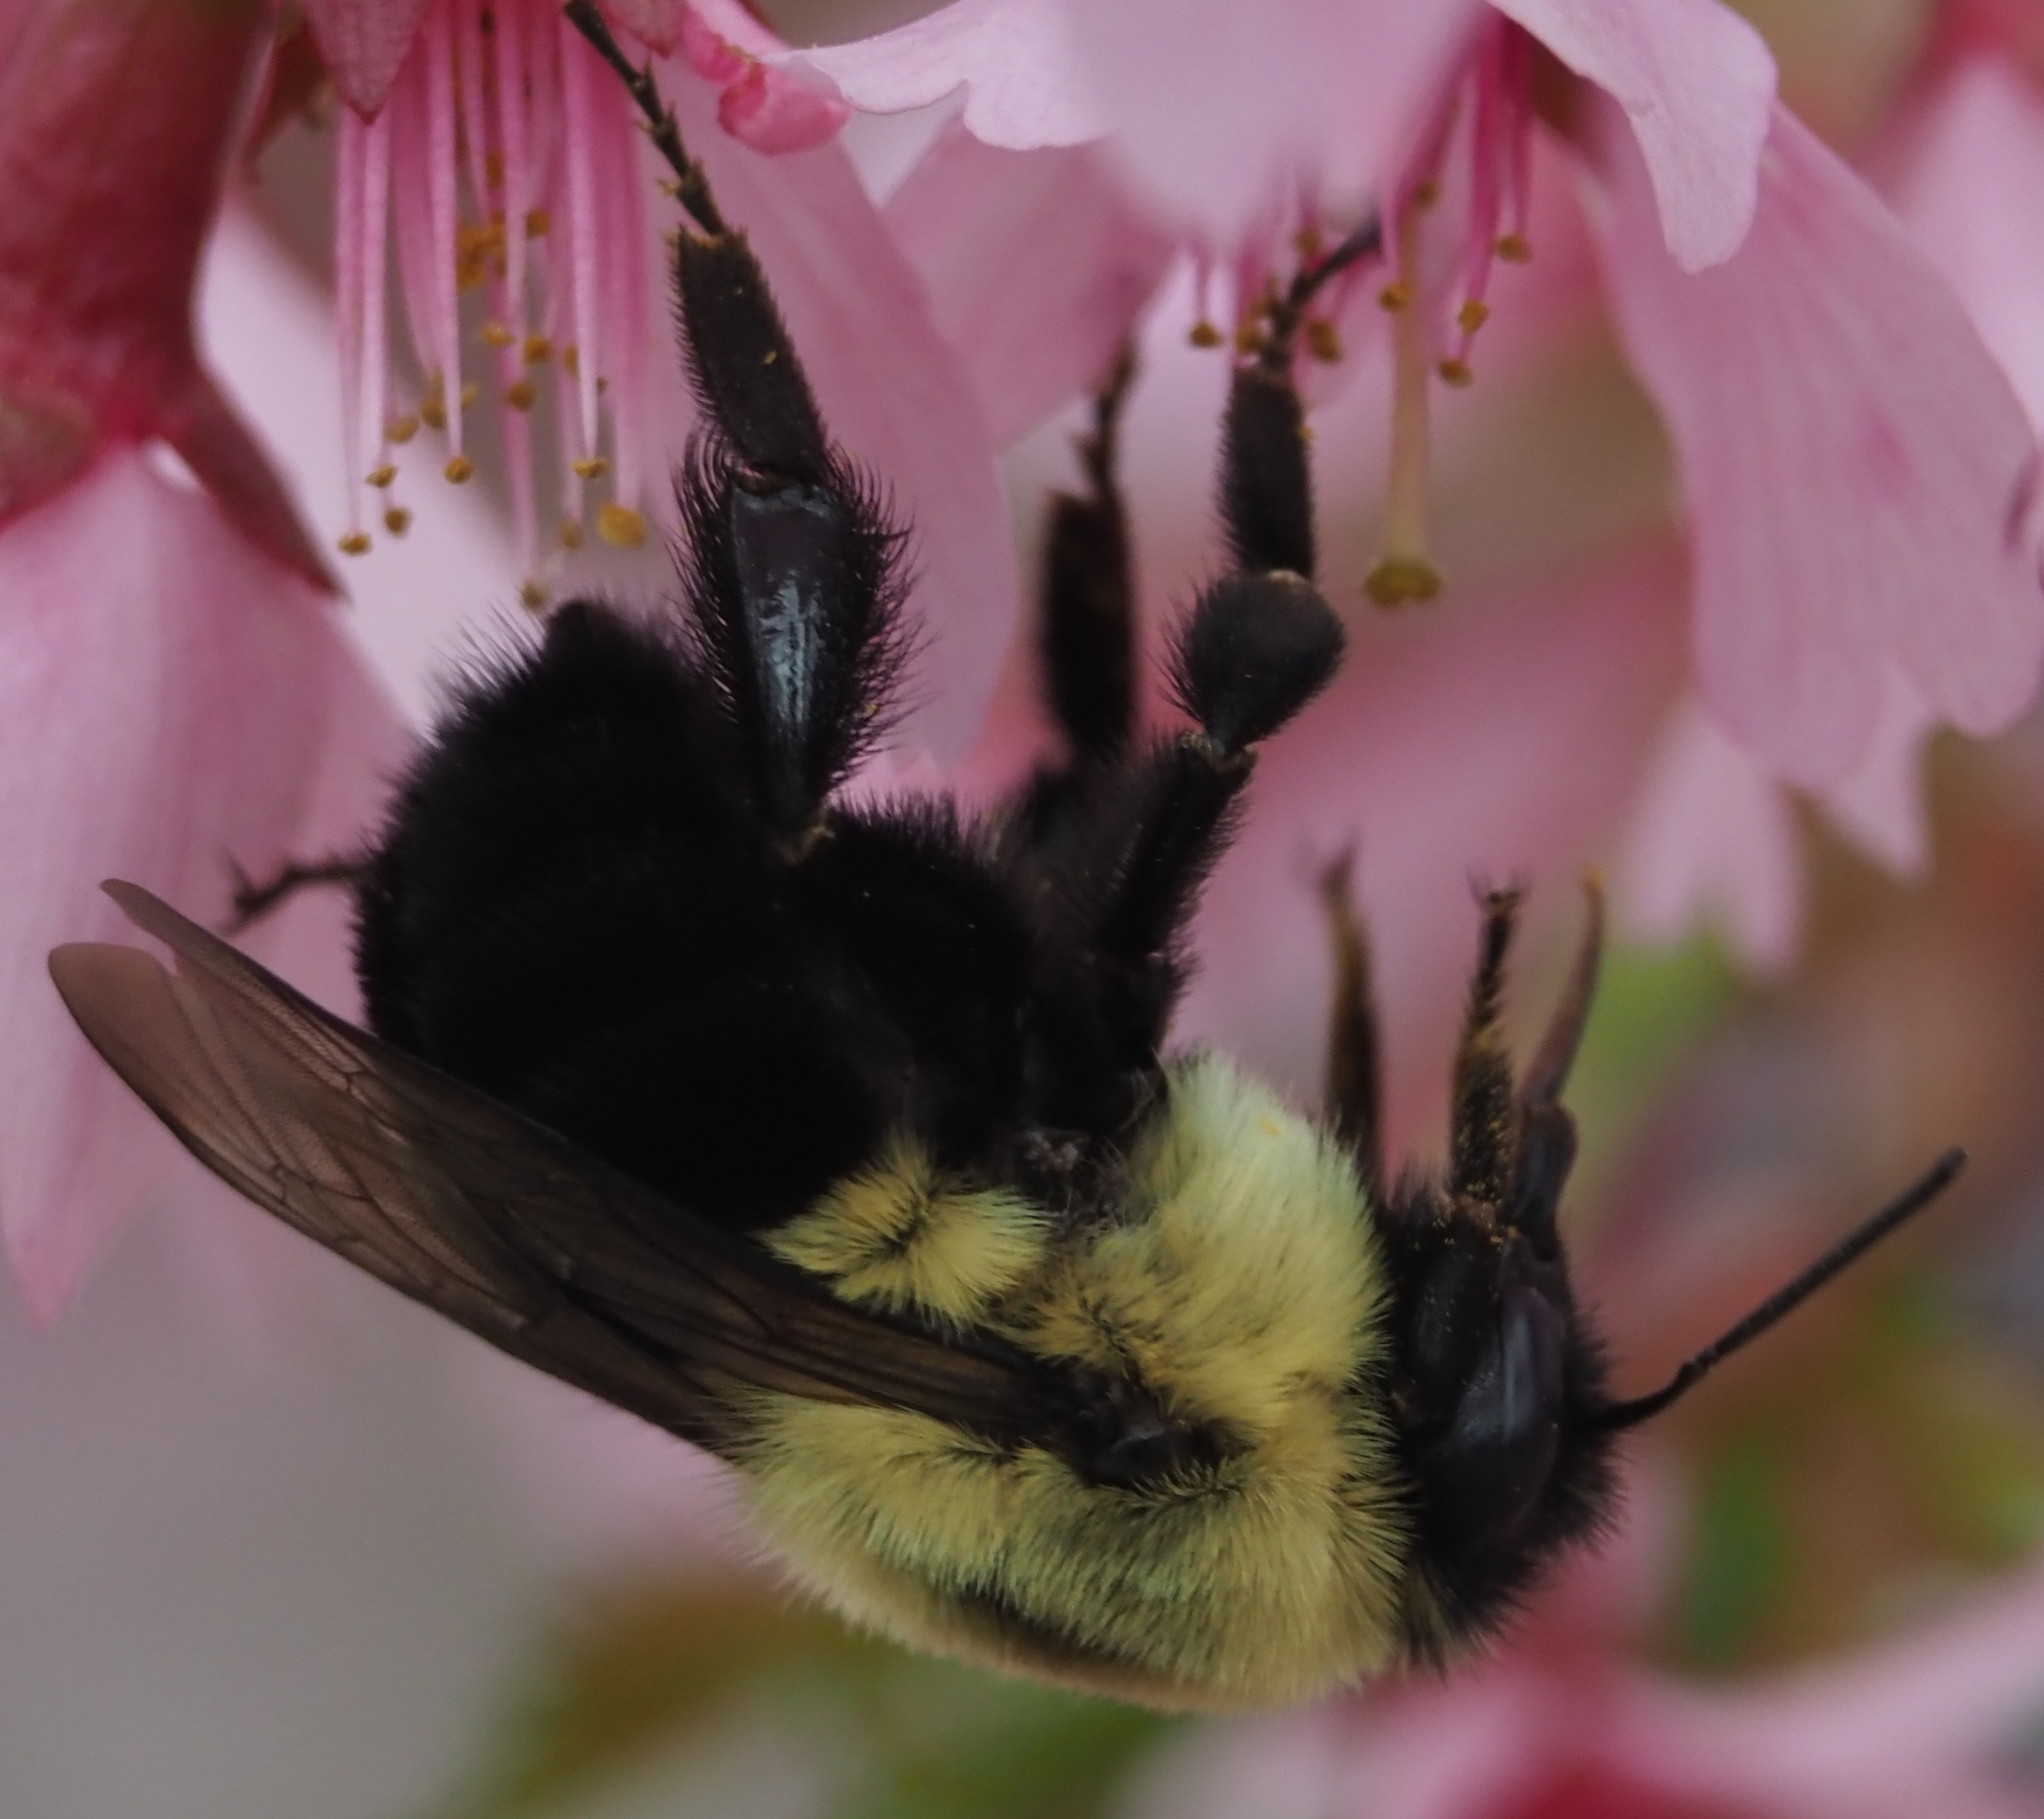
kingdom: Animalia
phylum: Arthropoda
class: Insecta
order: Hymenoptera
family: Apidae
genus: Bombus
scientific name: Bombus impatiens
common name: Common eastern bumble bee
